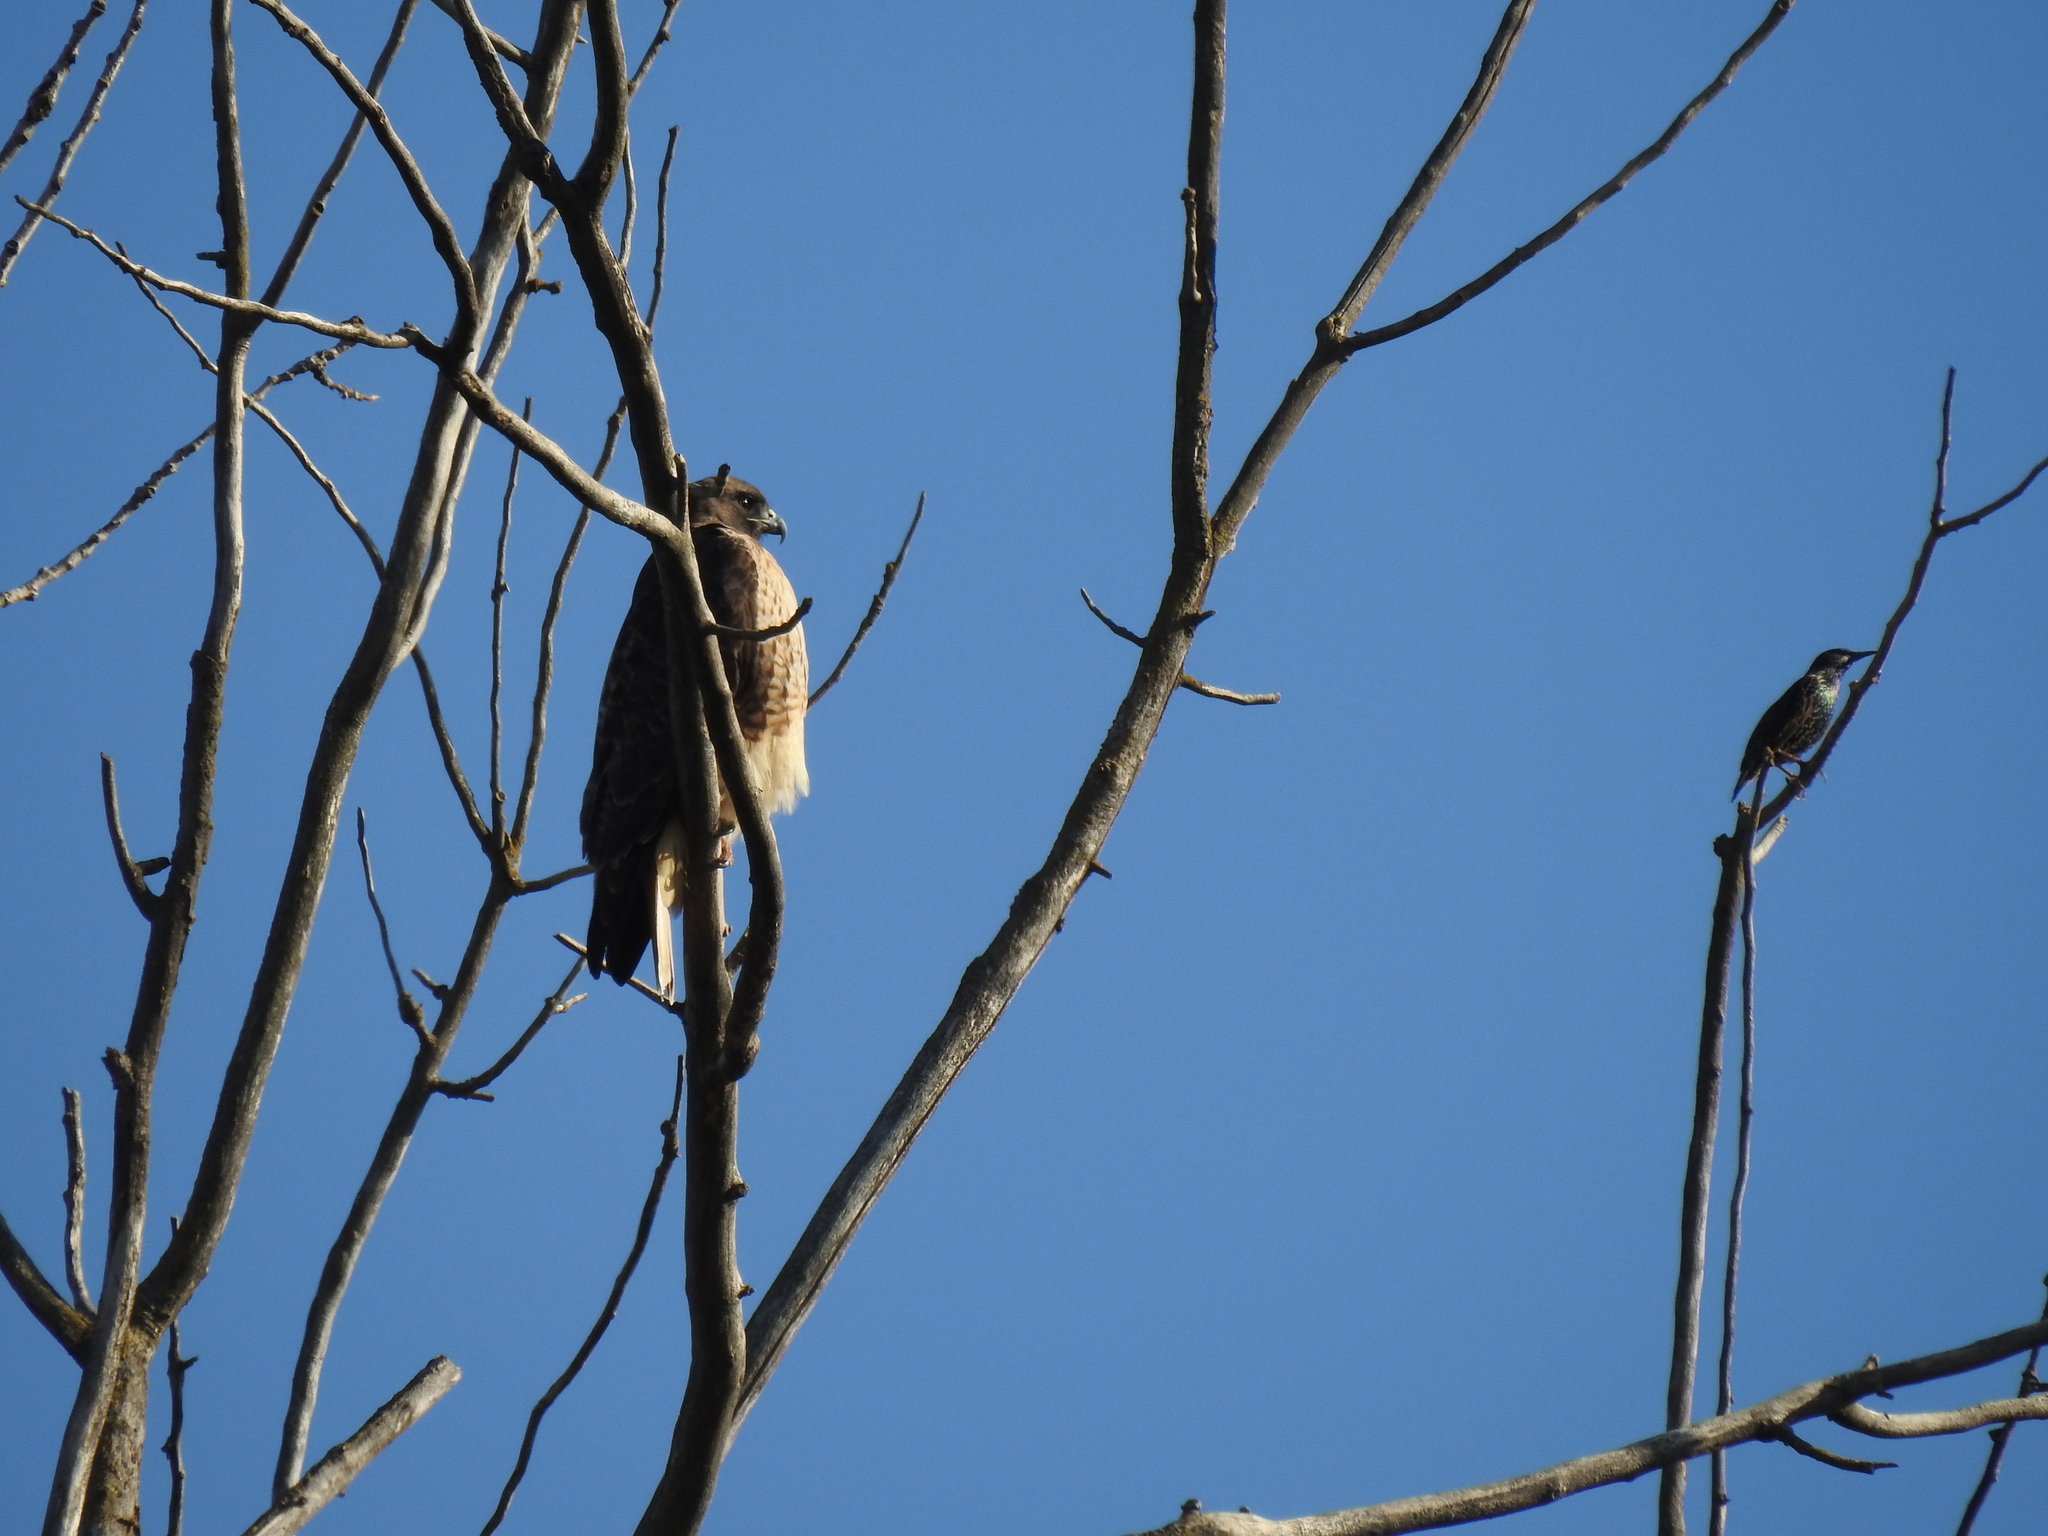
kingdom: Animalia
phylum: Chordata
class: Aves
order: Accipitriformes
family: Accipitridae
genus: Buteo
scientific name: Buteo jamaicensis
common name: Red-tailed hawk
